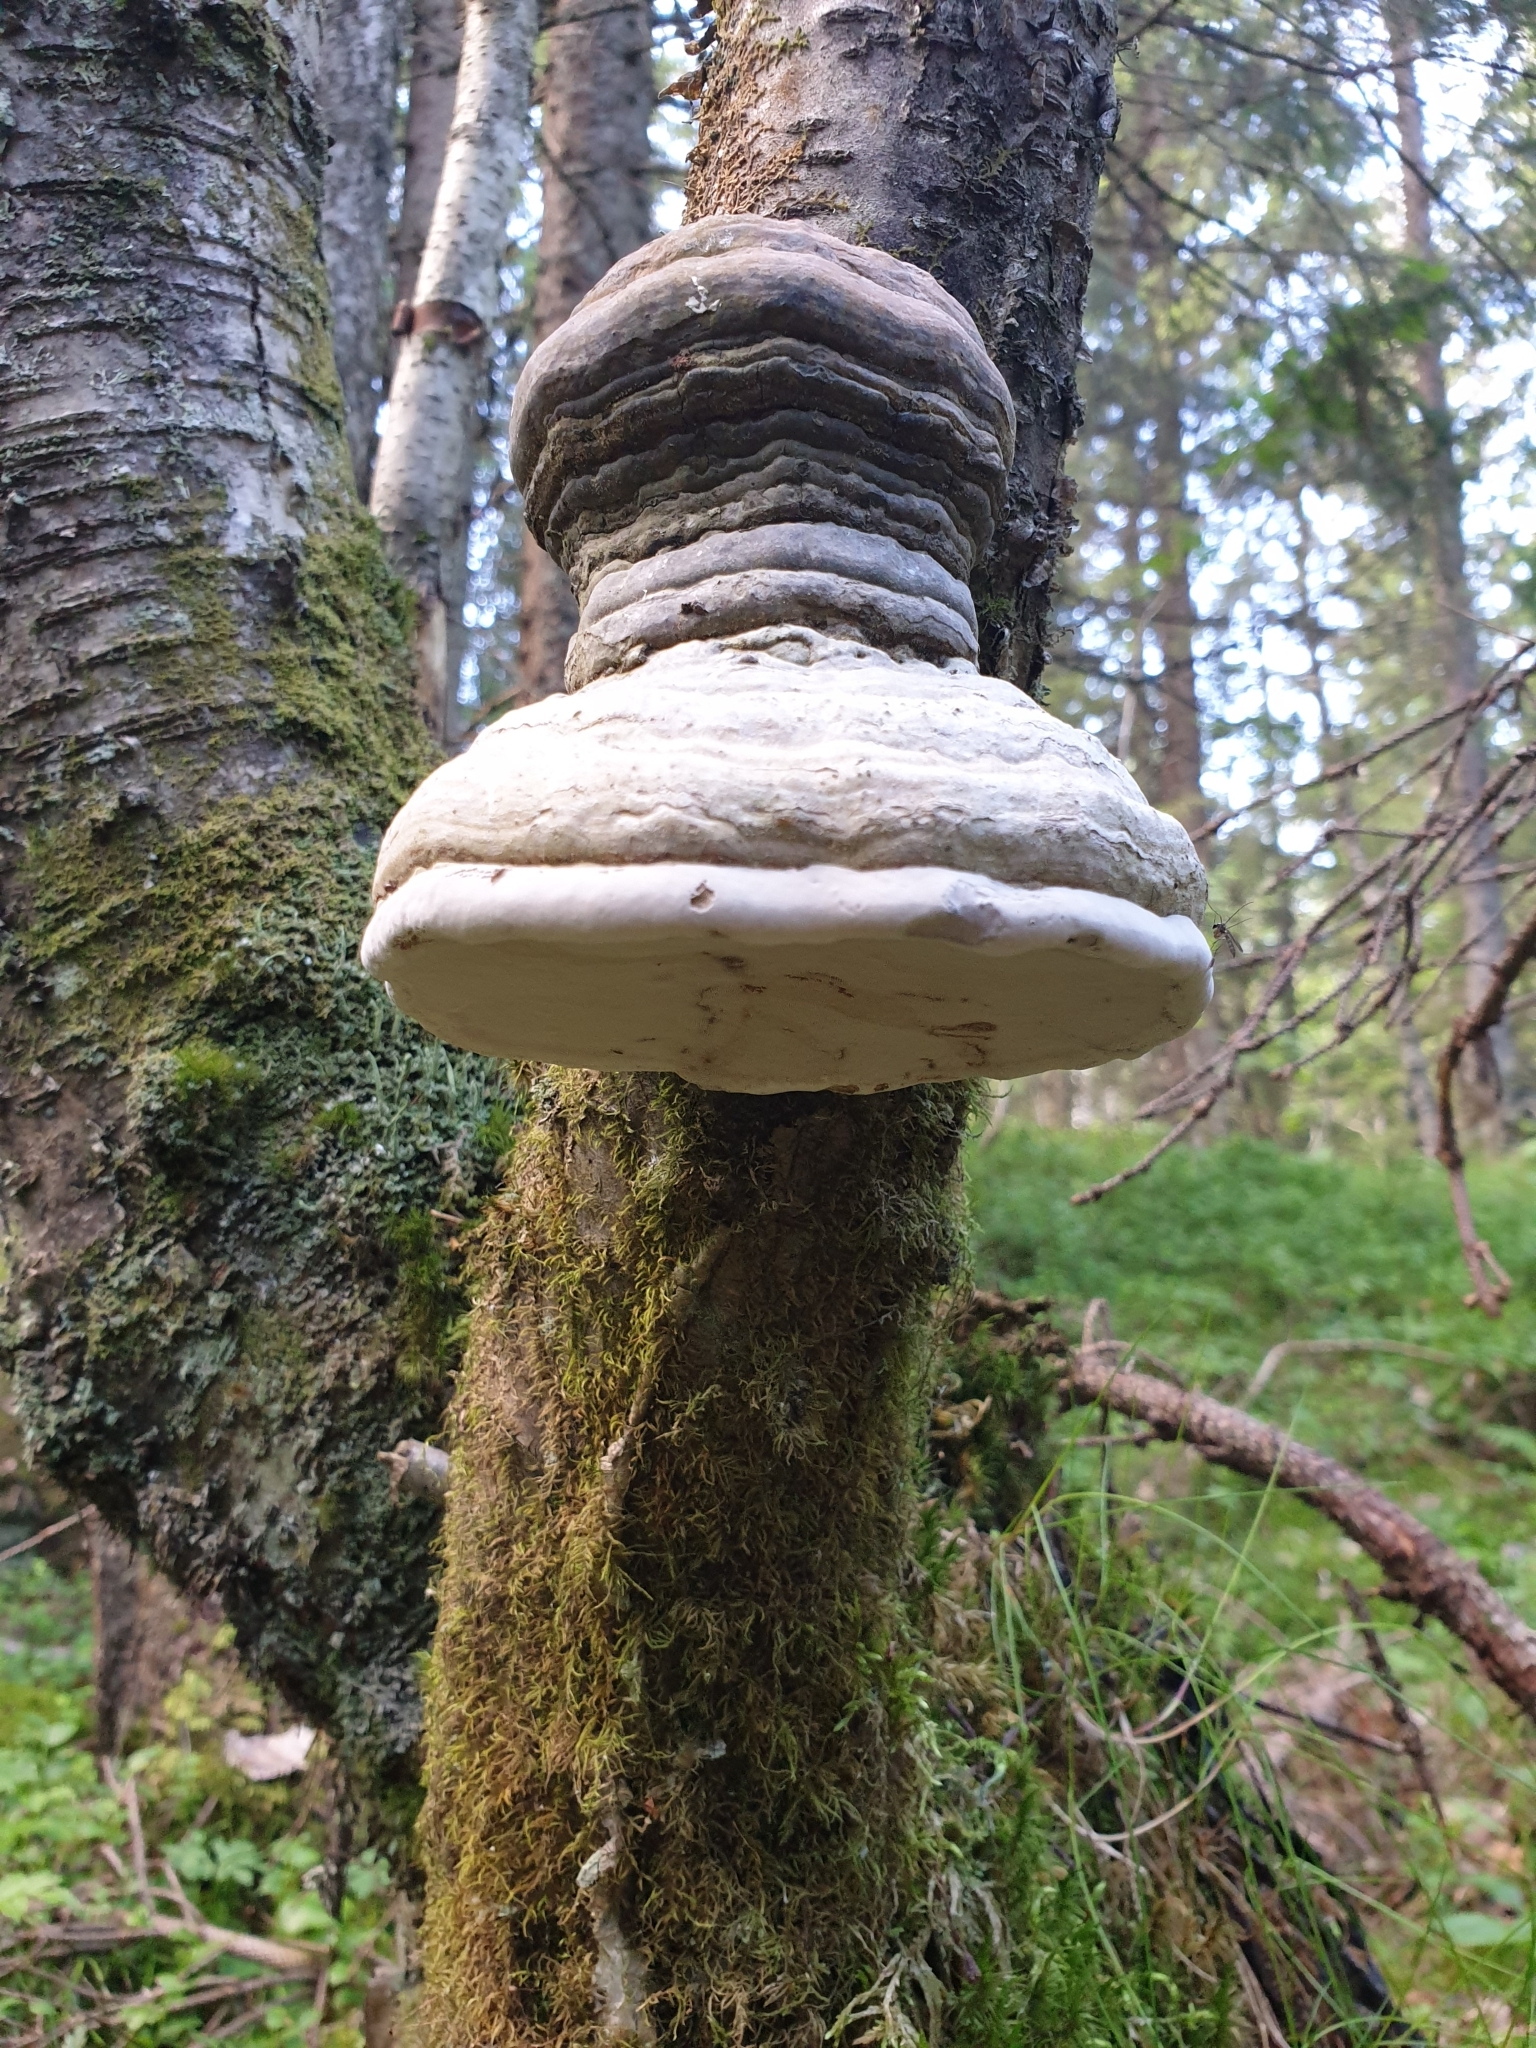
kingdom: Fungi
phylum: Basidiomycota
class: Agaricomycetes
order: Polyporales
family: Polyporaceae
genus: Fomes
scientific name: Fomes fomentarius
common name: Hoof fungus
